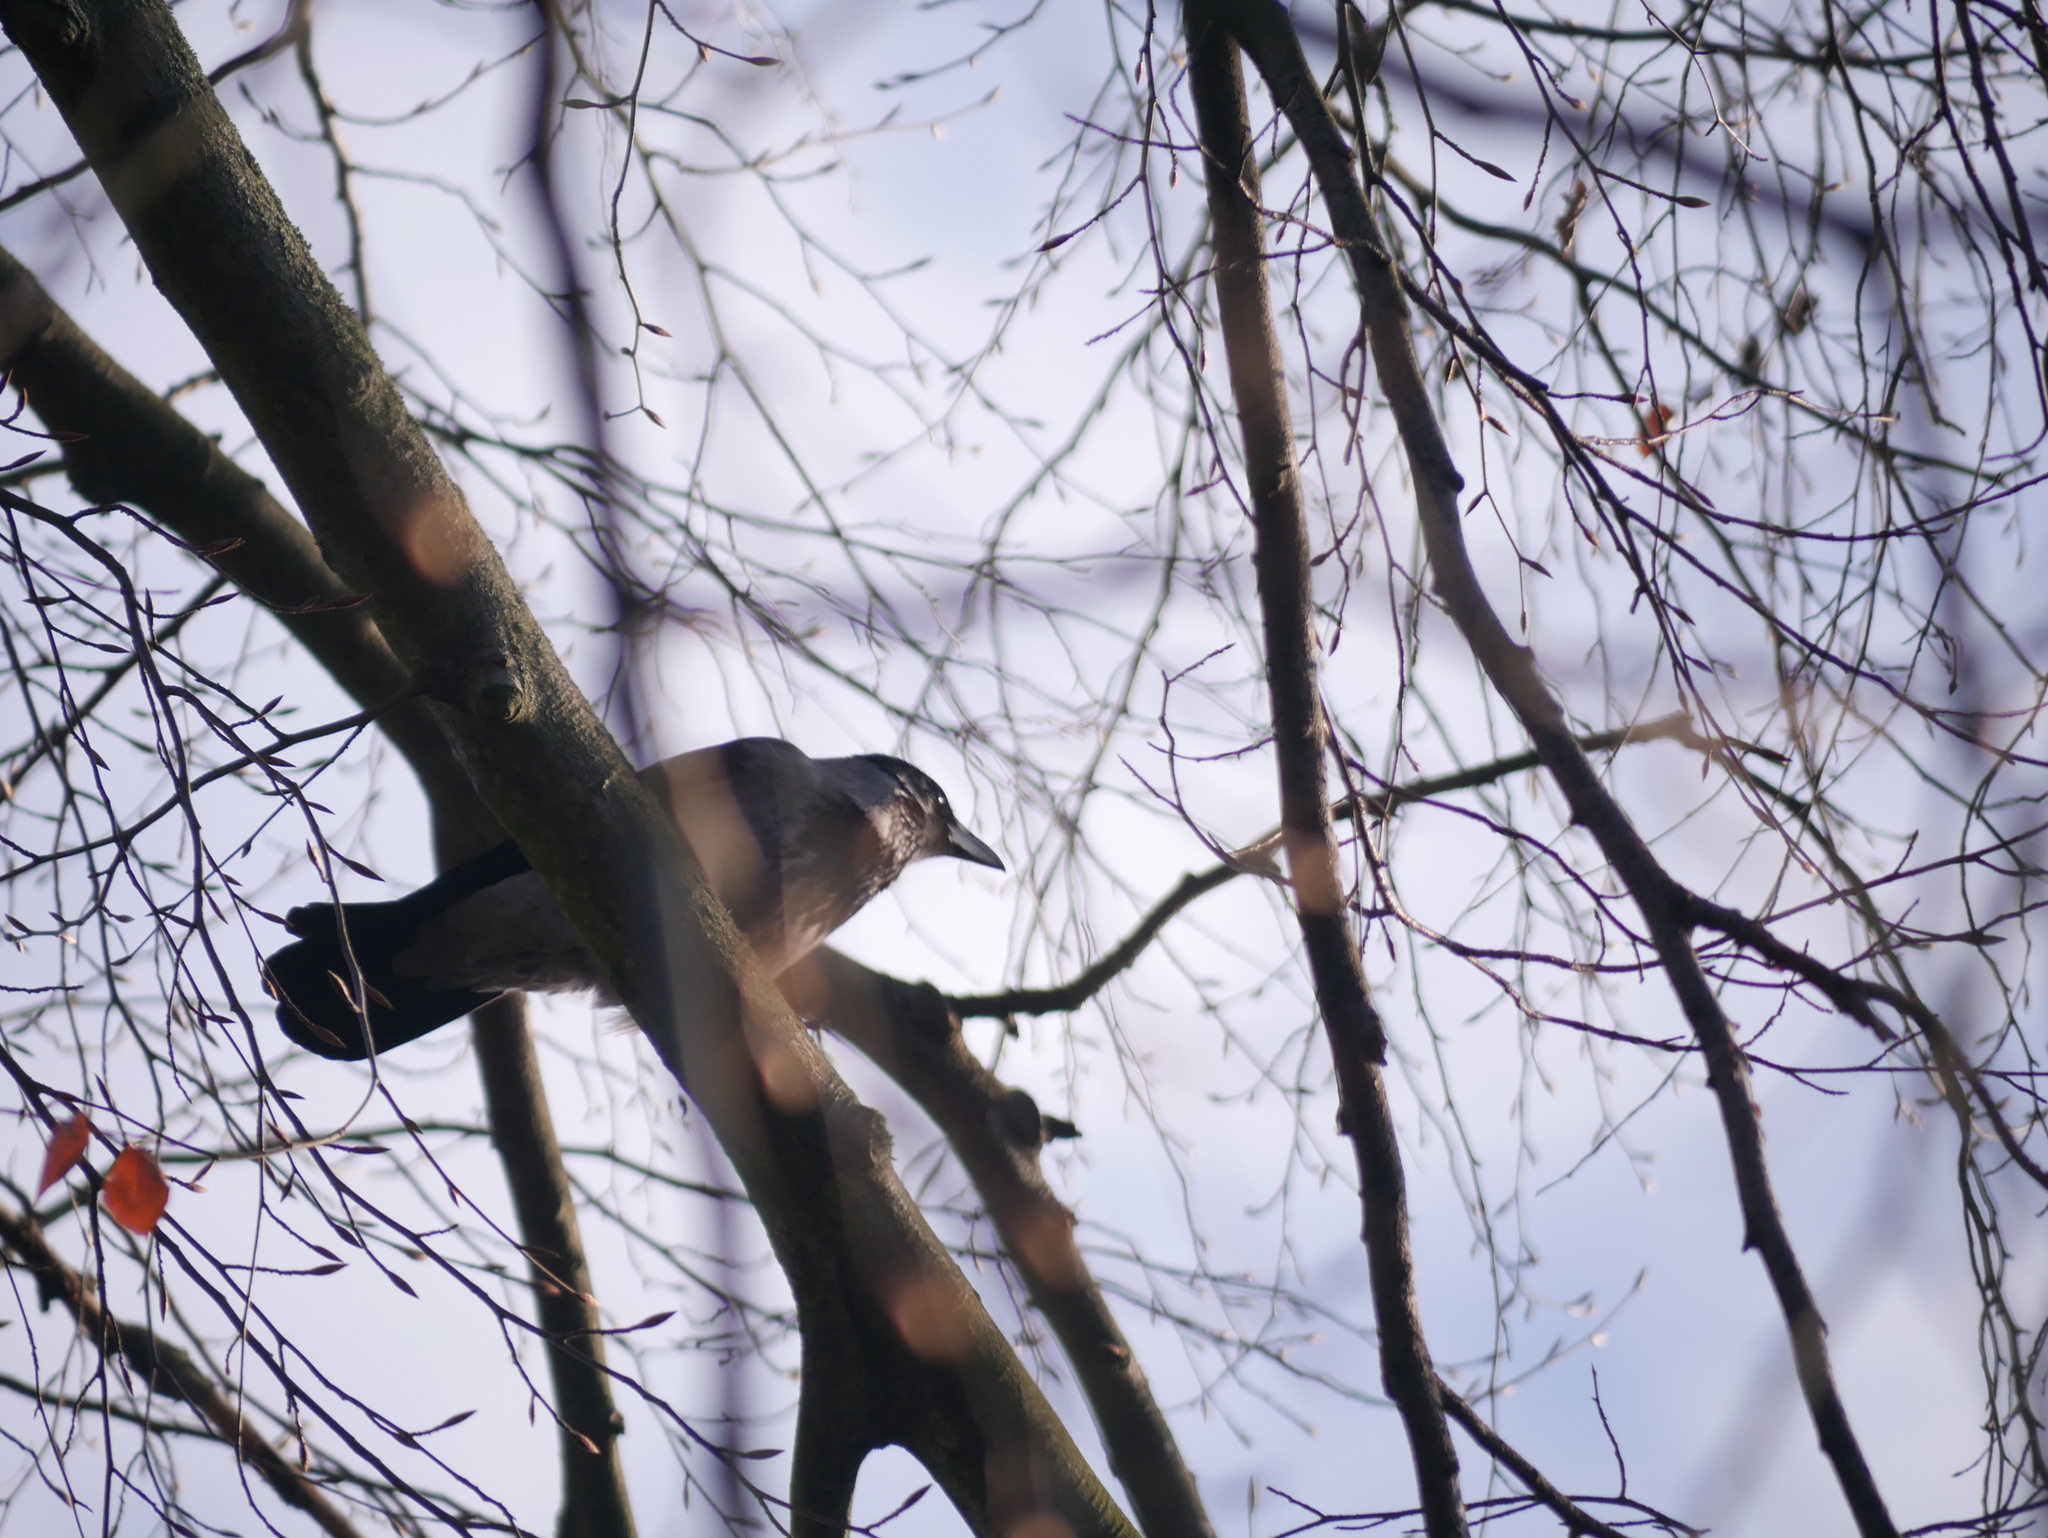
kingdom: Animalia
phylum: Chordata
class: Aves
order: Passeriformes
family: Corvidae
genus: Corvus
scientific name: Corvus cornix
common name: Hooded crow
